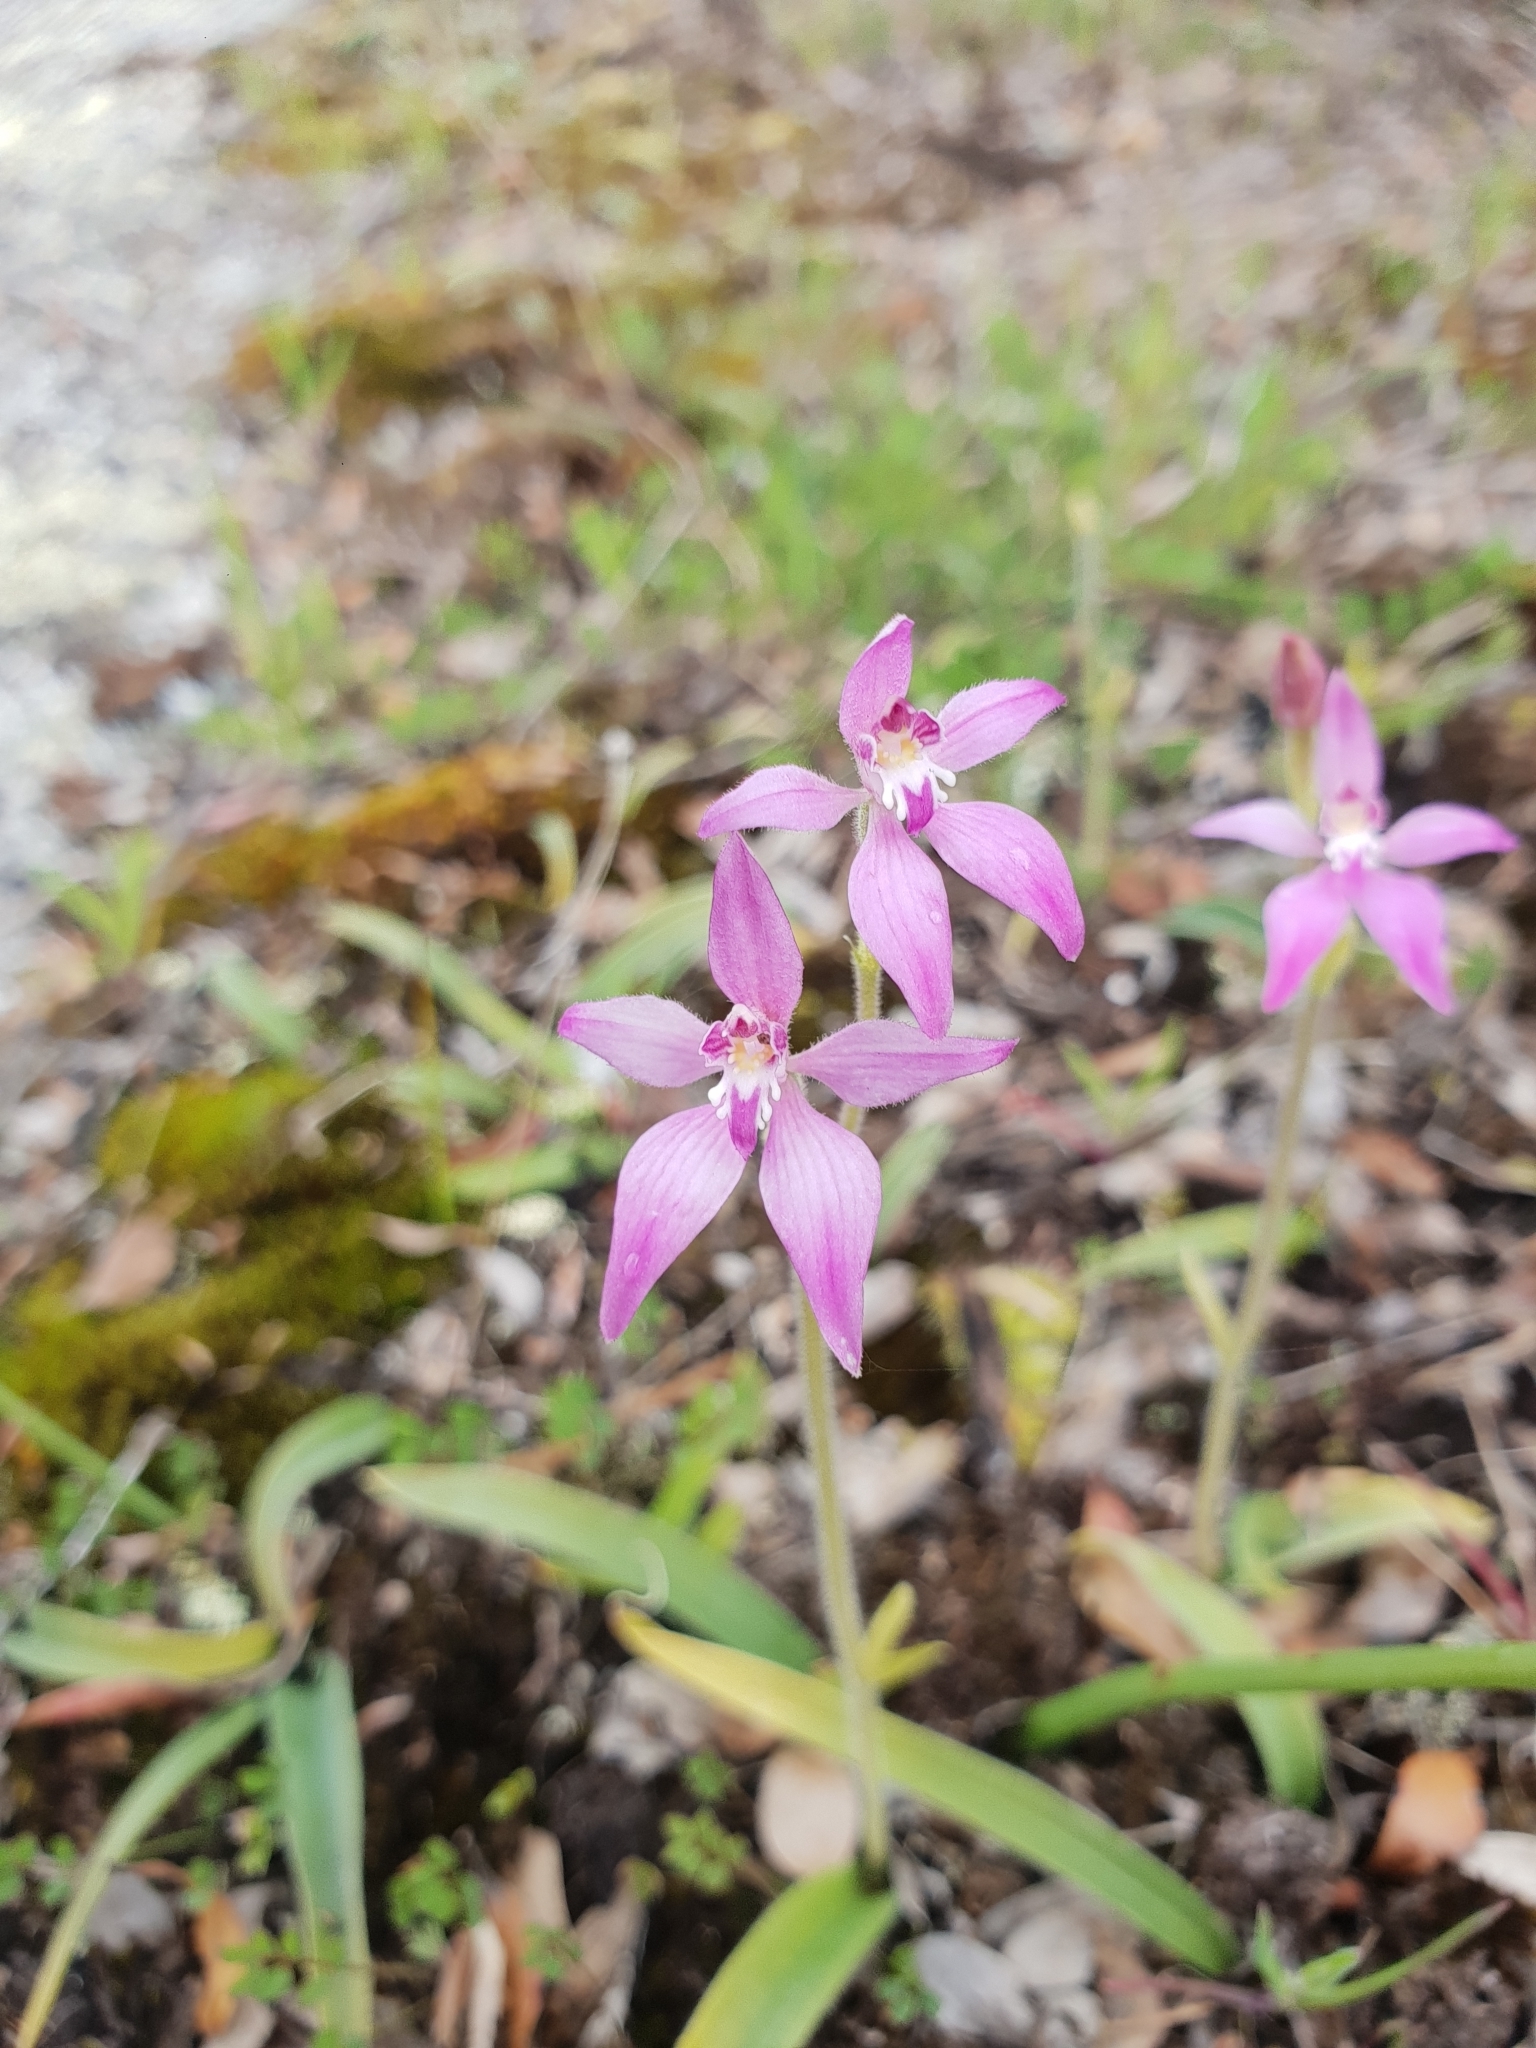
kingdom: Plantae
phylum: Tracheophyta
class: Liliopsida
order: Asparagales
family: Orchidaceae
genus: Caladenia
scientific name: Caladenia reptans
